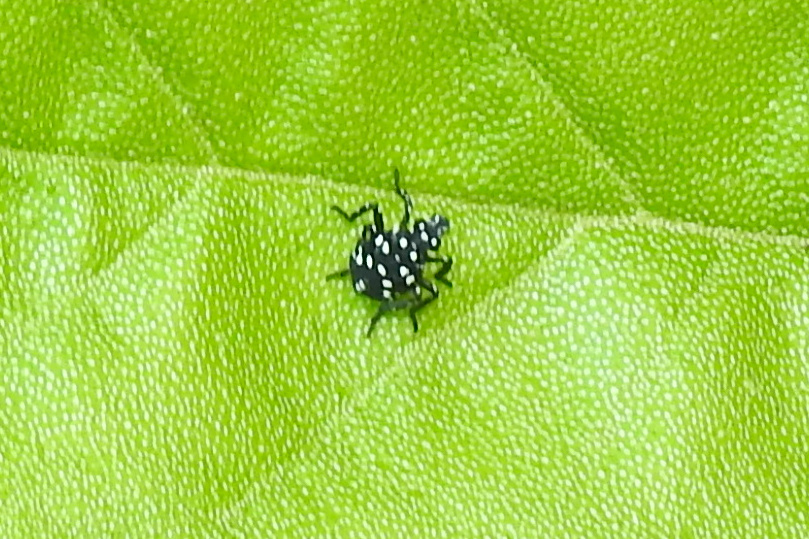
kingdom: Animalia
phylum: Arthropoda
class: Insecta
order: Hemiptera
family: Fulgoridae
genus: Lycorma
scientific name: Lycorma delicatula
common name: Spotted lanternfly
